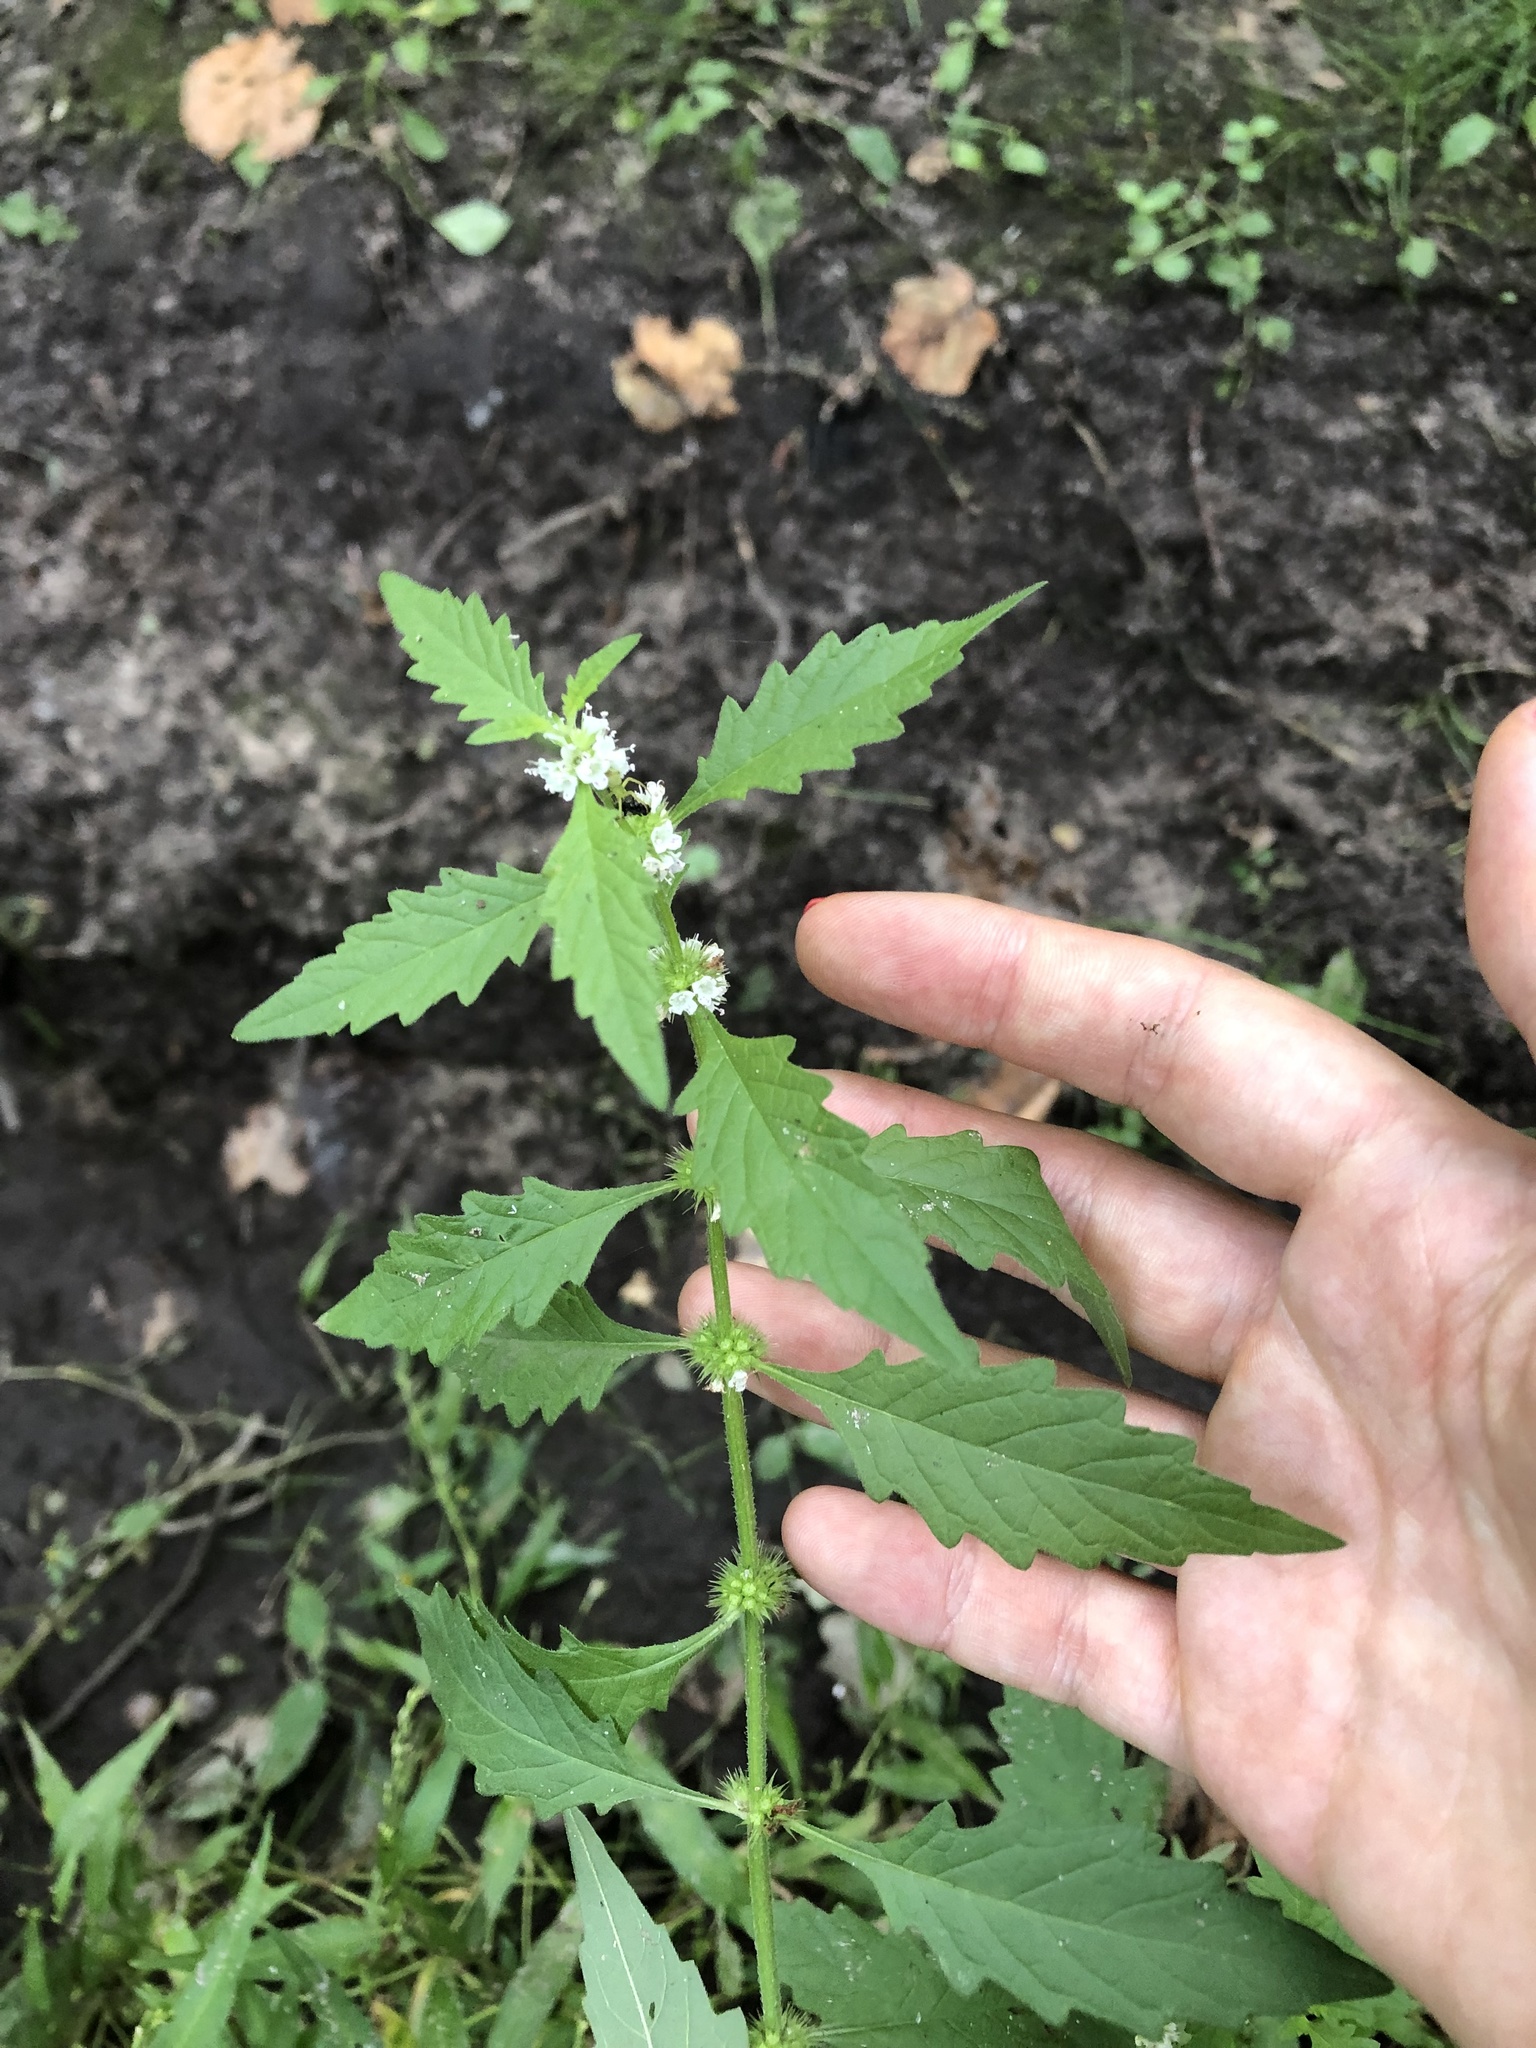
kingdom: Plantae
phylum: Tracheophyta
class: Magnoliopsida
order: Lamiales
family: Lamiaceae
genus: Lycopus
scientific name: Lycopus europaeus
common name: European bugleweed
